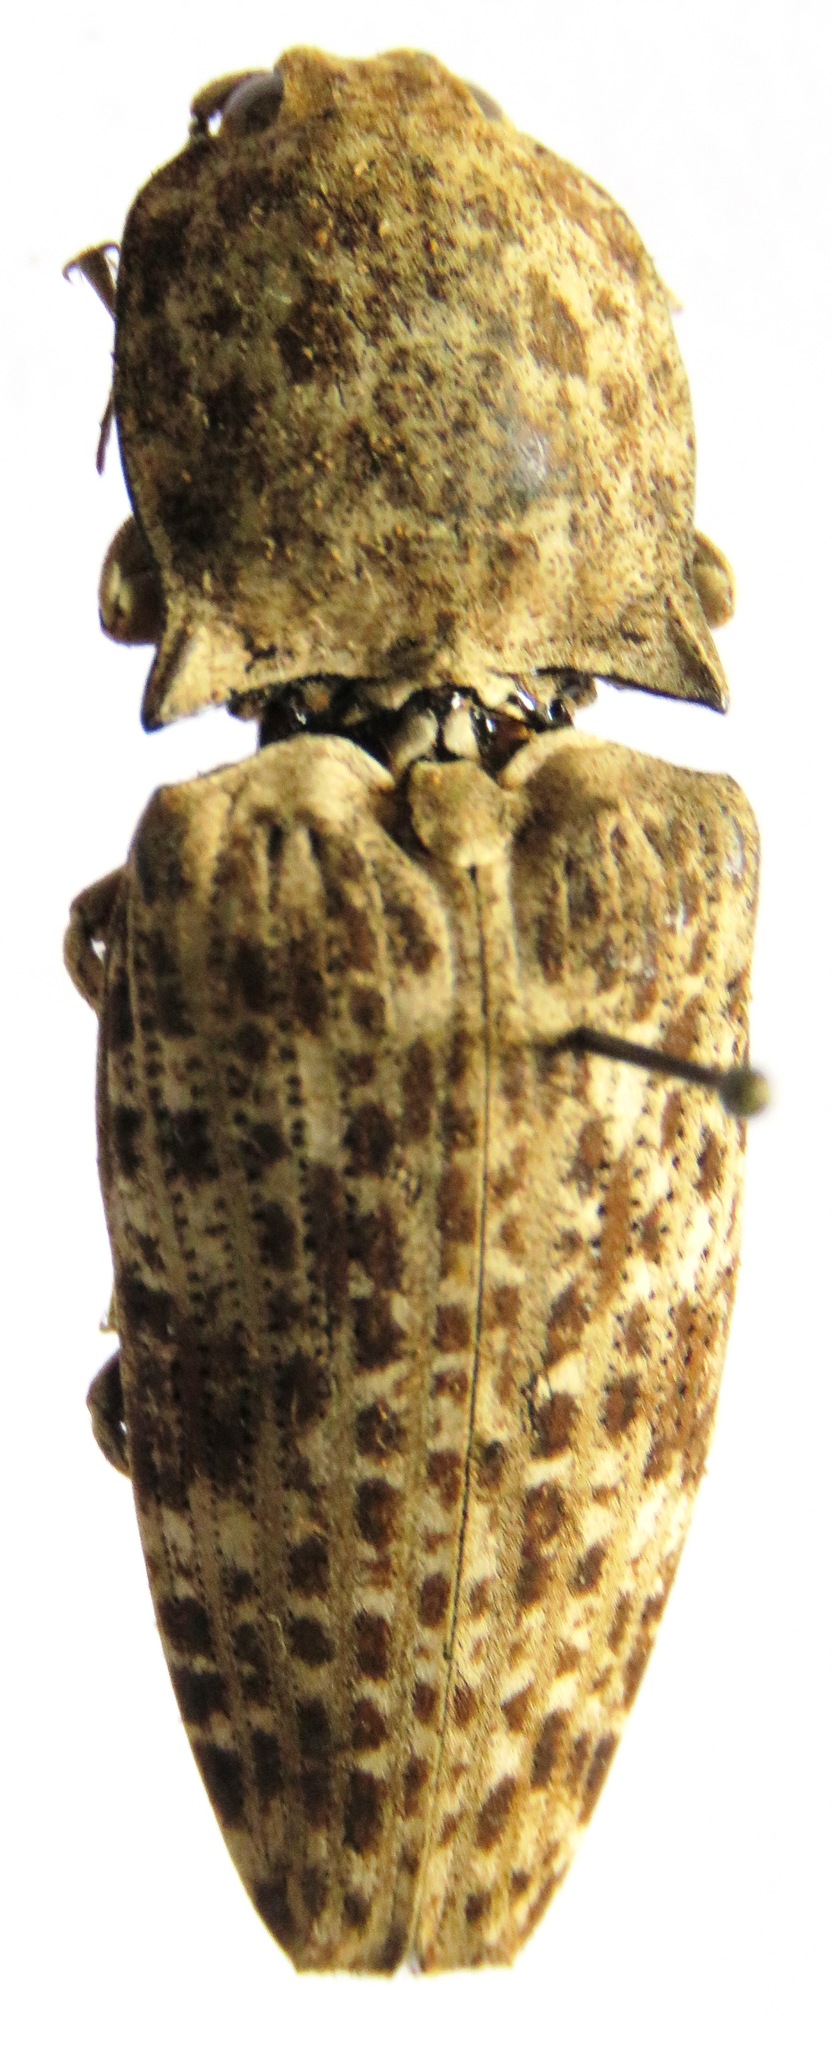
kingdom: Animalia
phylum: Arthropoda
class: Insecta
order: Coleoptera
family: Elateridae
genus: Cryptalaus
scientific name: Cryptalaus
